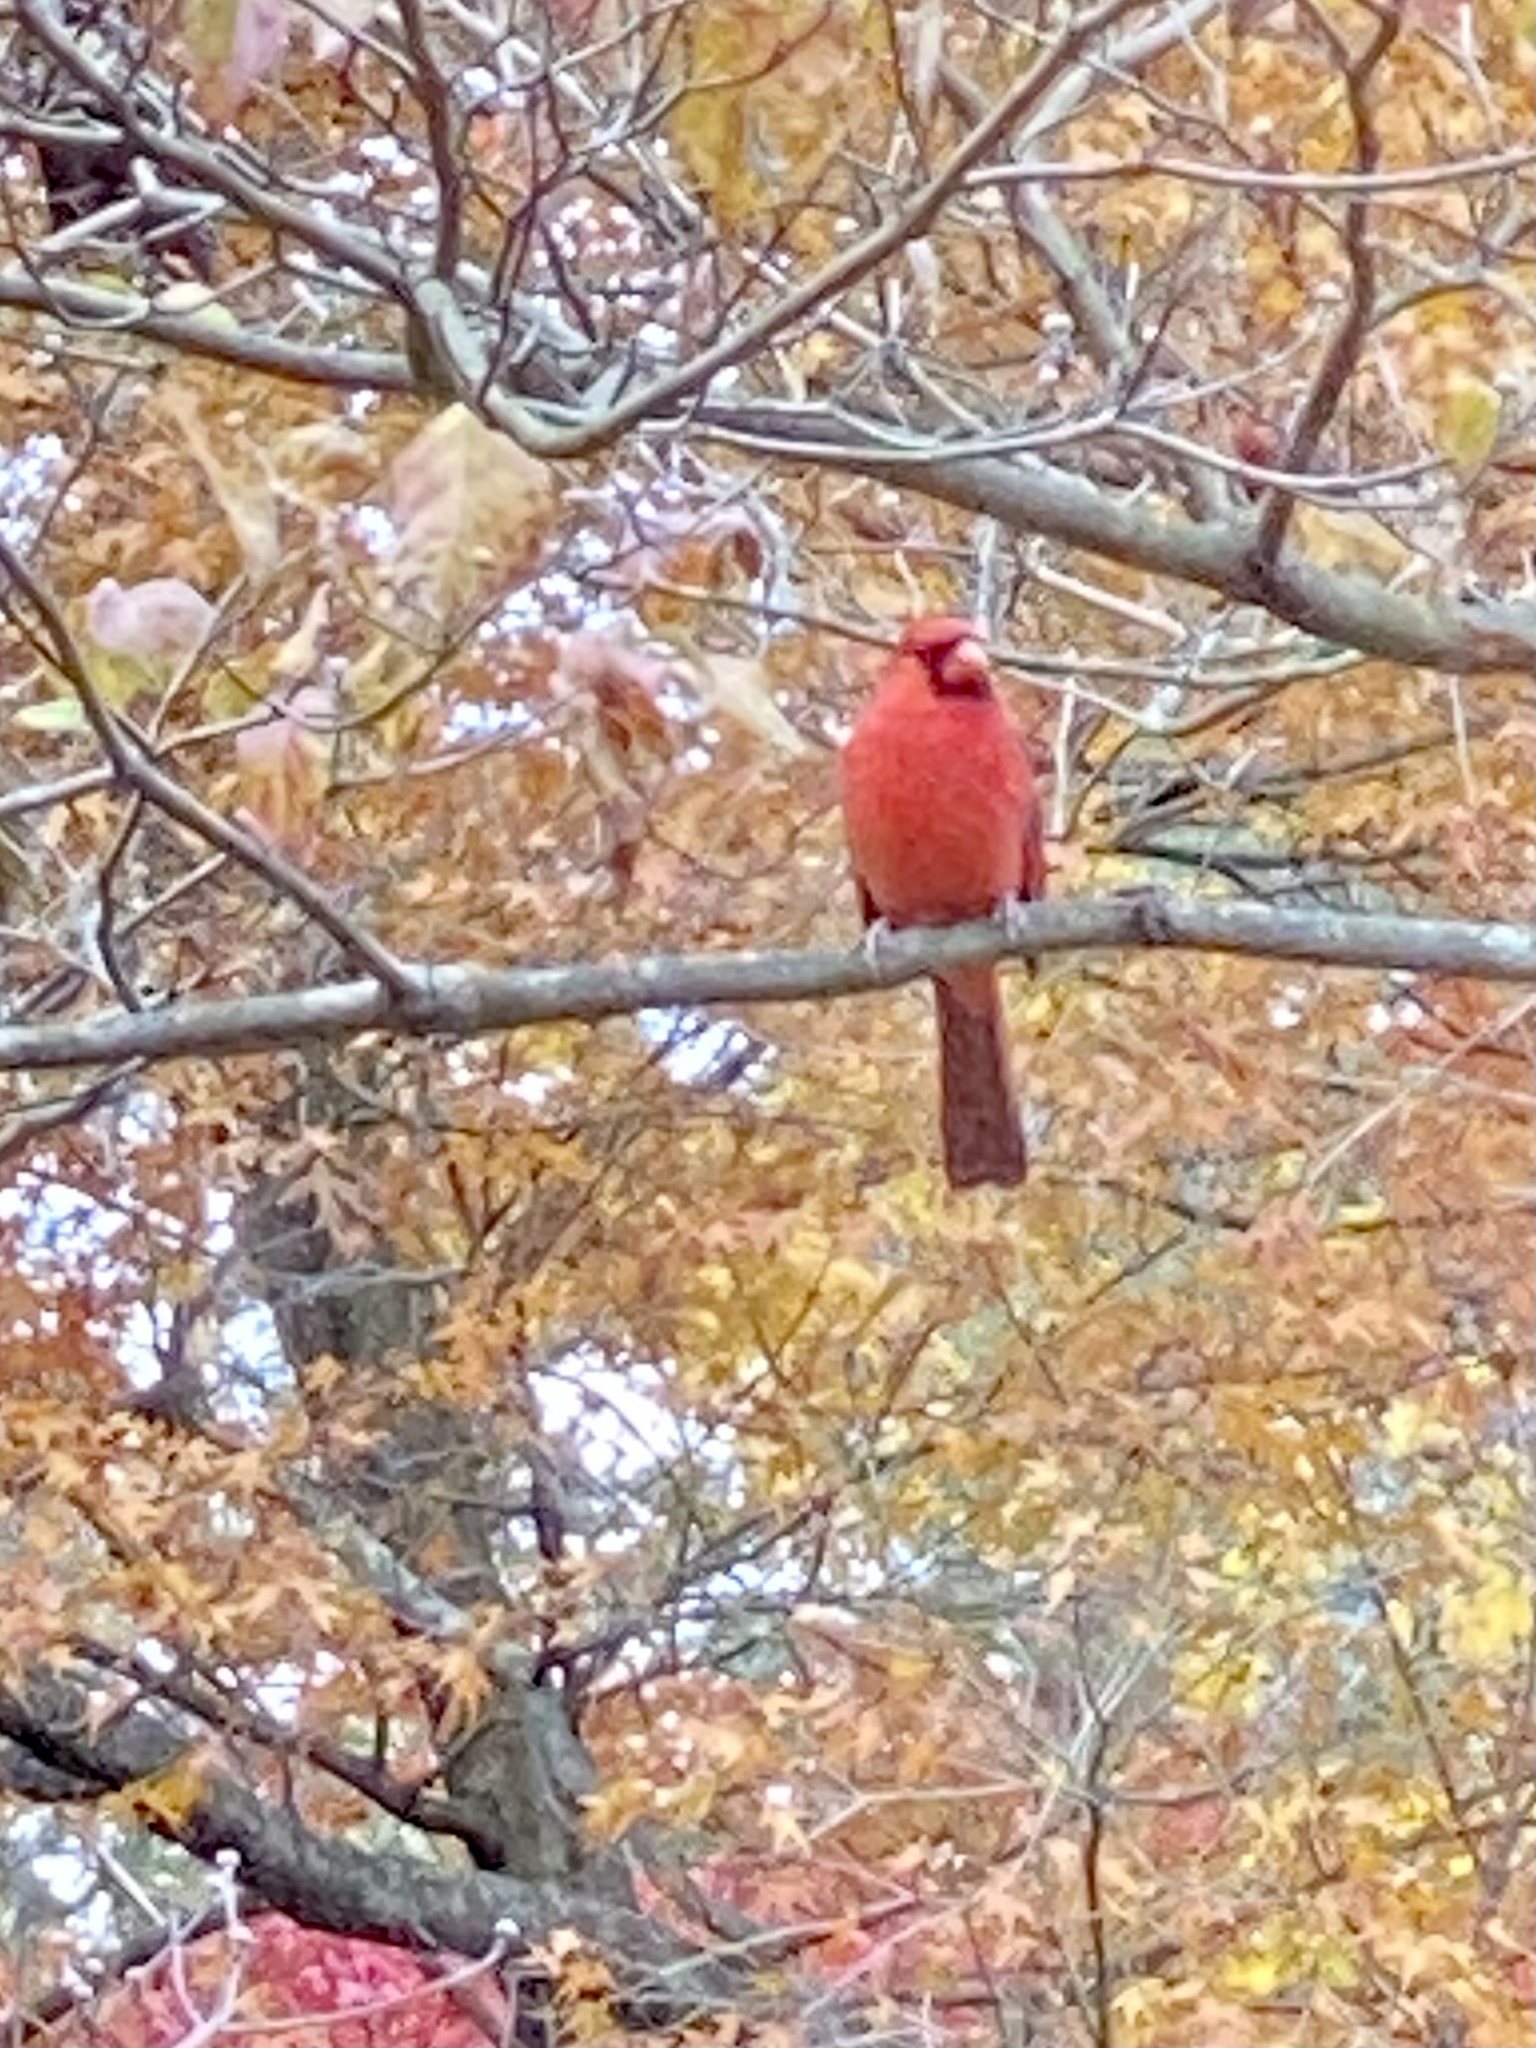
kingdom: Animalia
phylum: Chordata
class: Aves
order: Passeriformes
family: Cardinalidae
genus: Cardinalis
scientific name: Cardinalis cardinalis
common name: Northern cardinal
